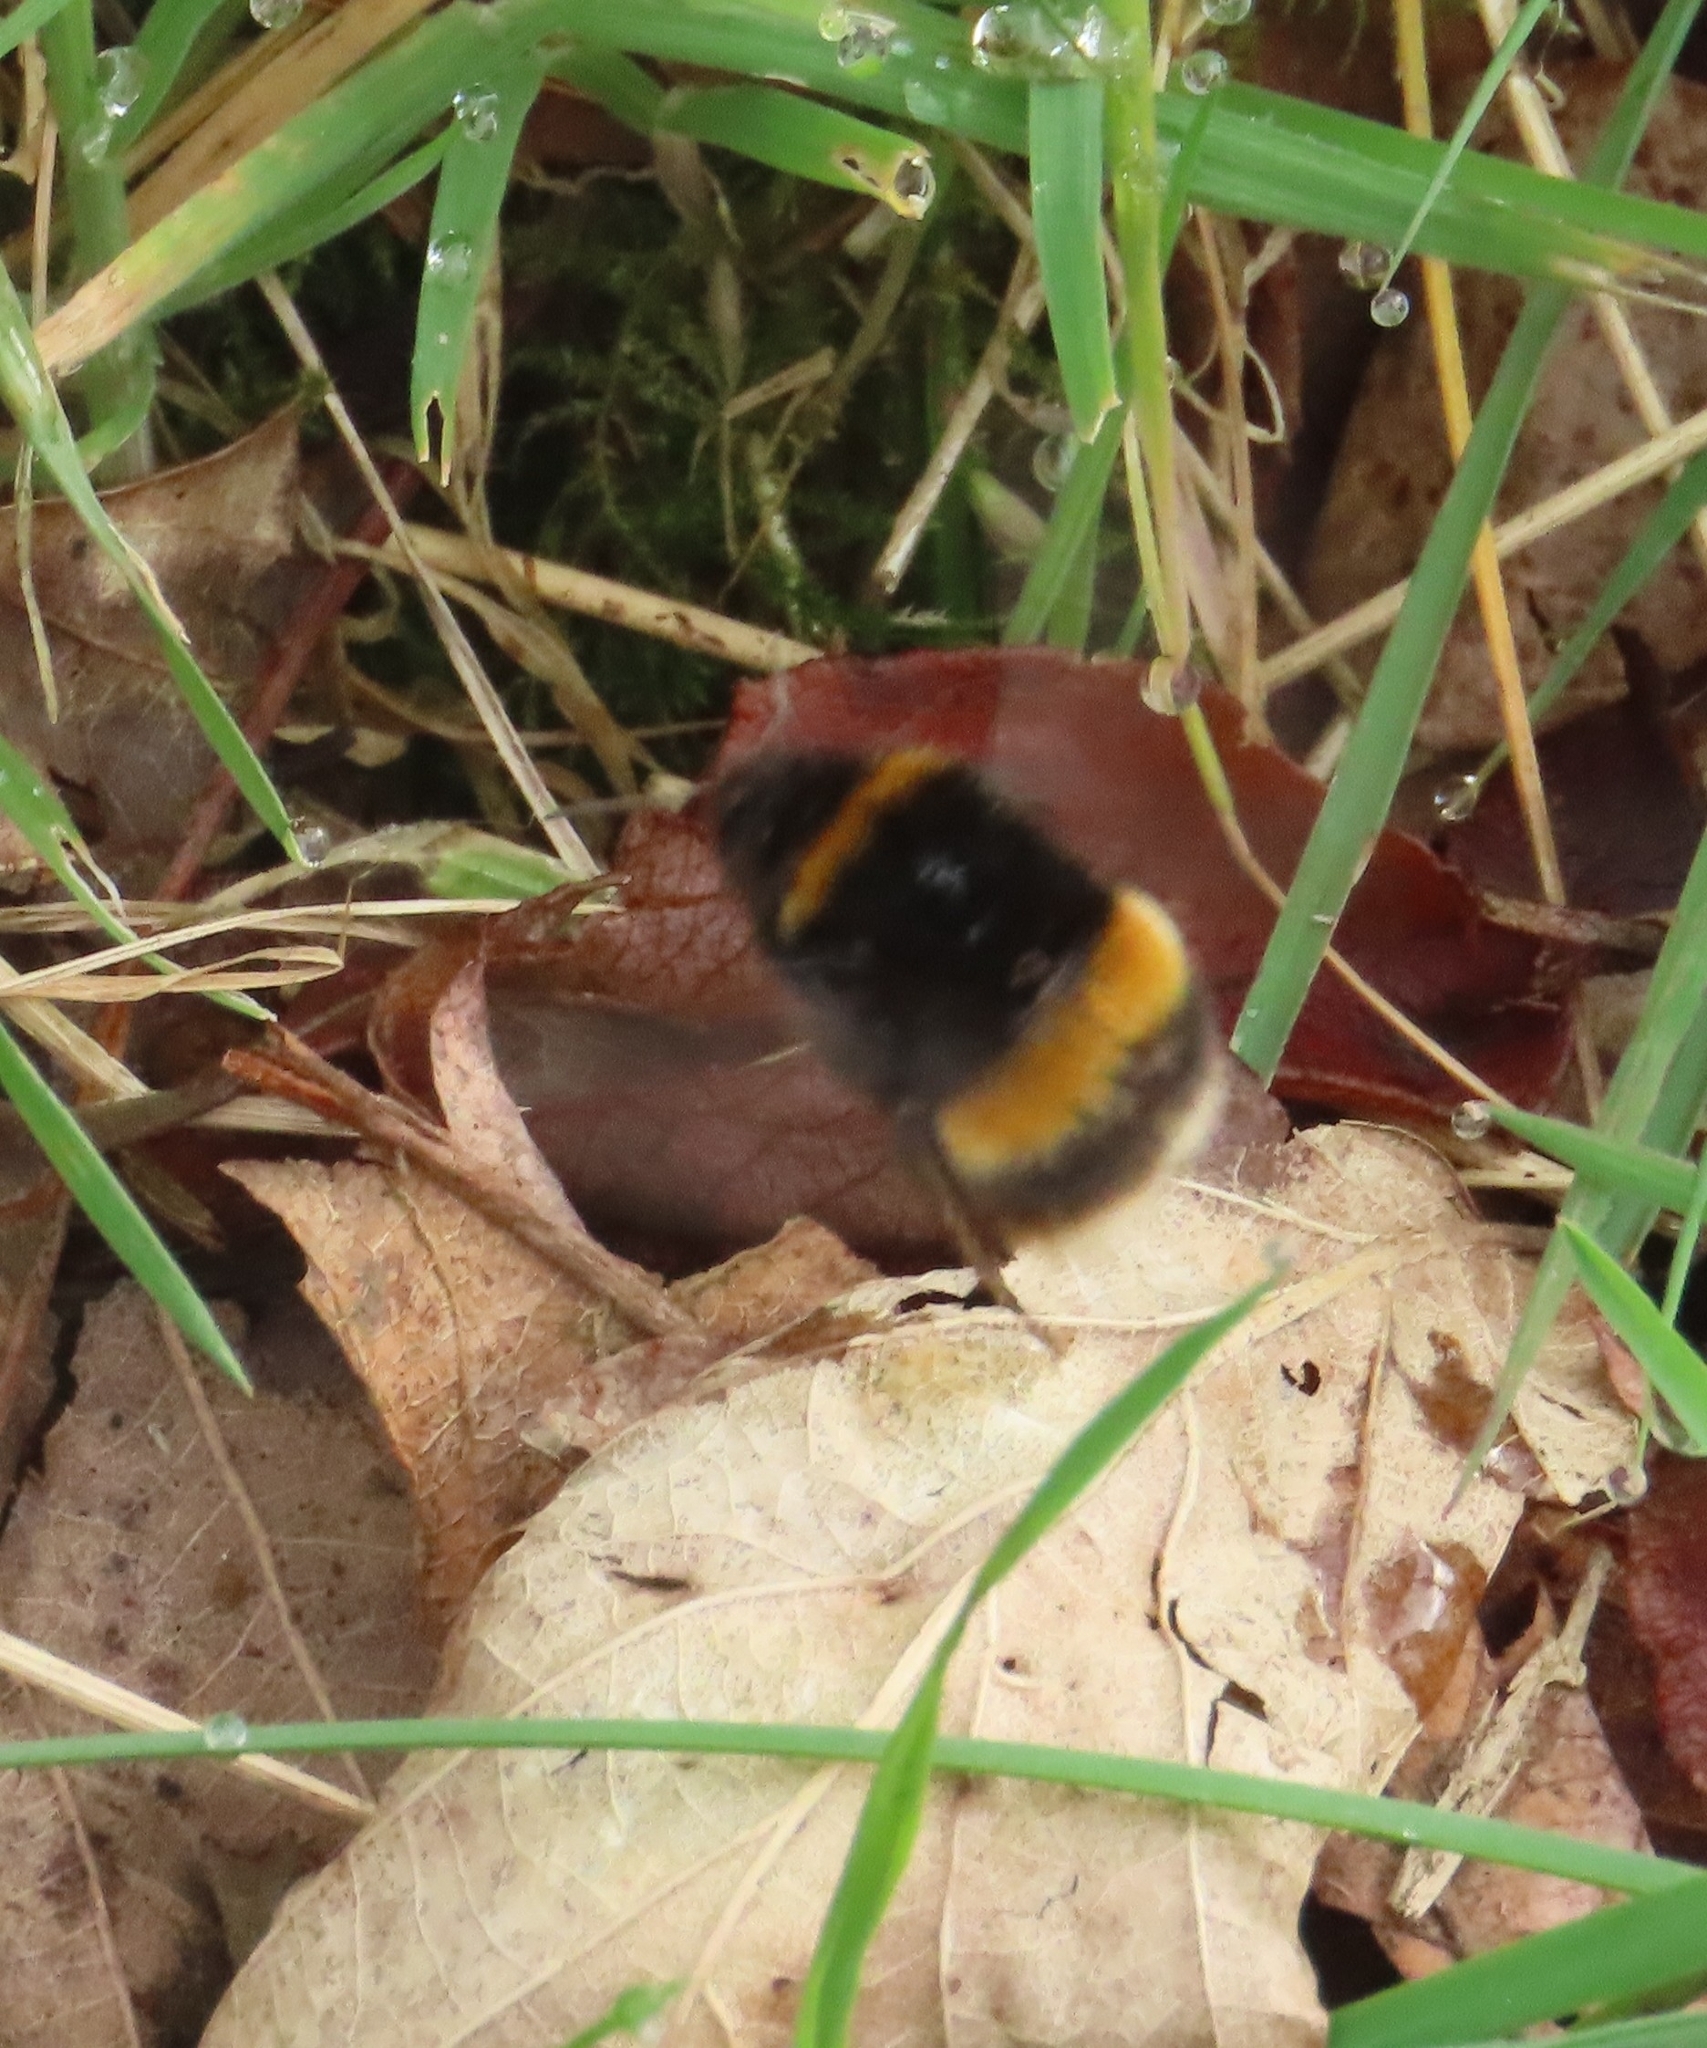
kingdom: Animalia
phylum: Arthropoda
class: Insecta
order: Hymenoptera
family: Apidae
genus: Bombus
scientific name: Bombus terrestris
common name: Buff-tailed bumblebee
